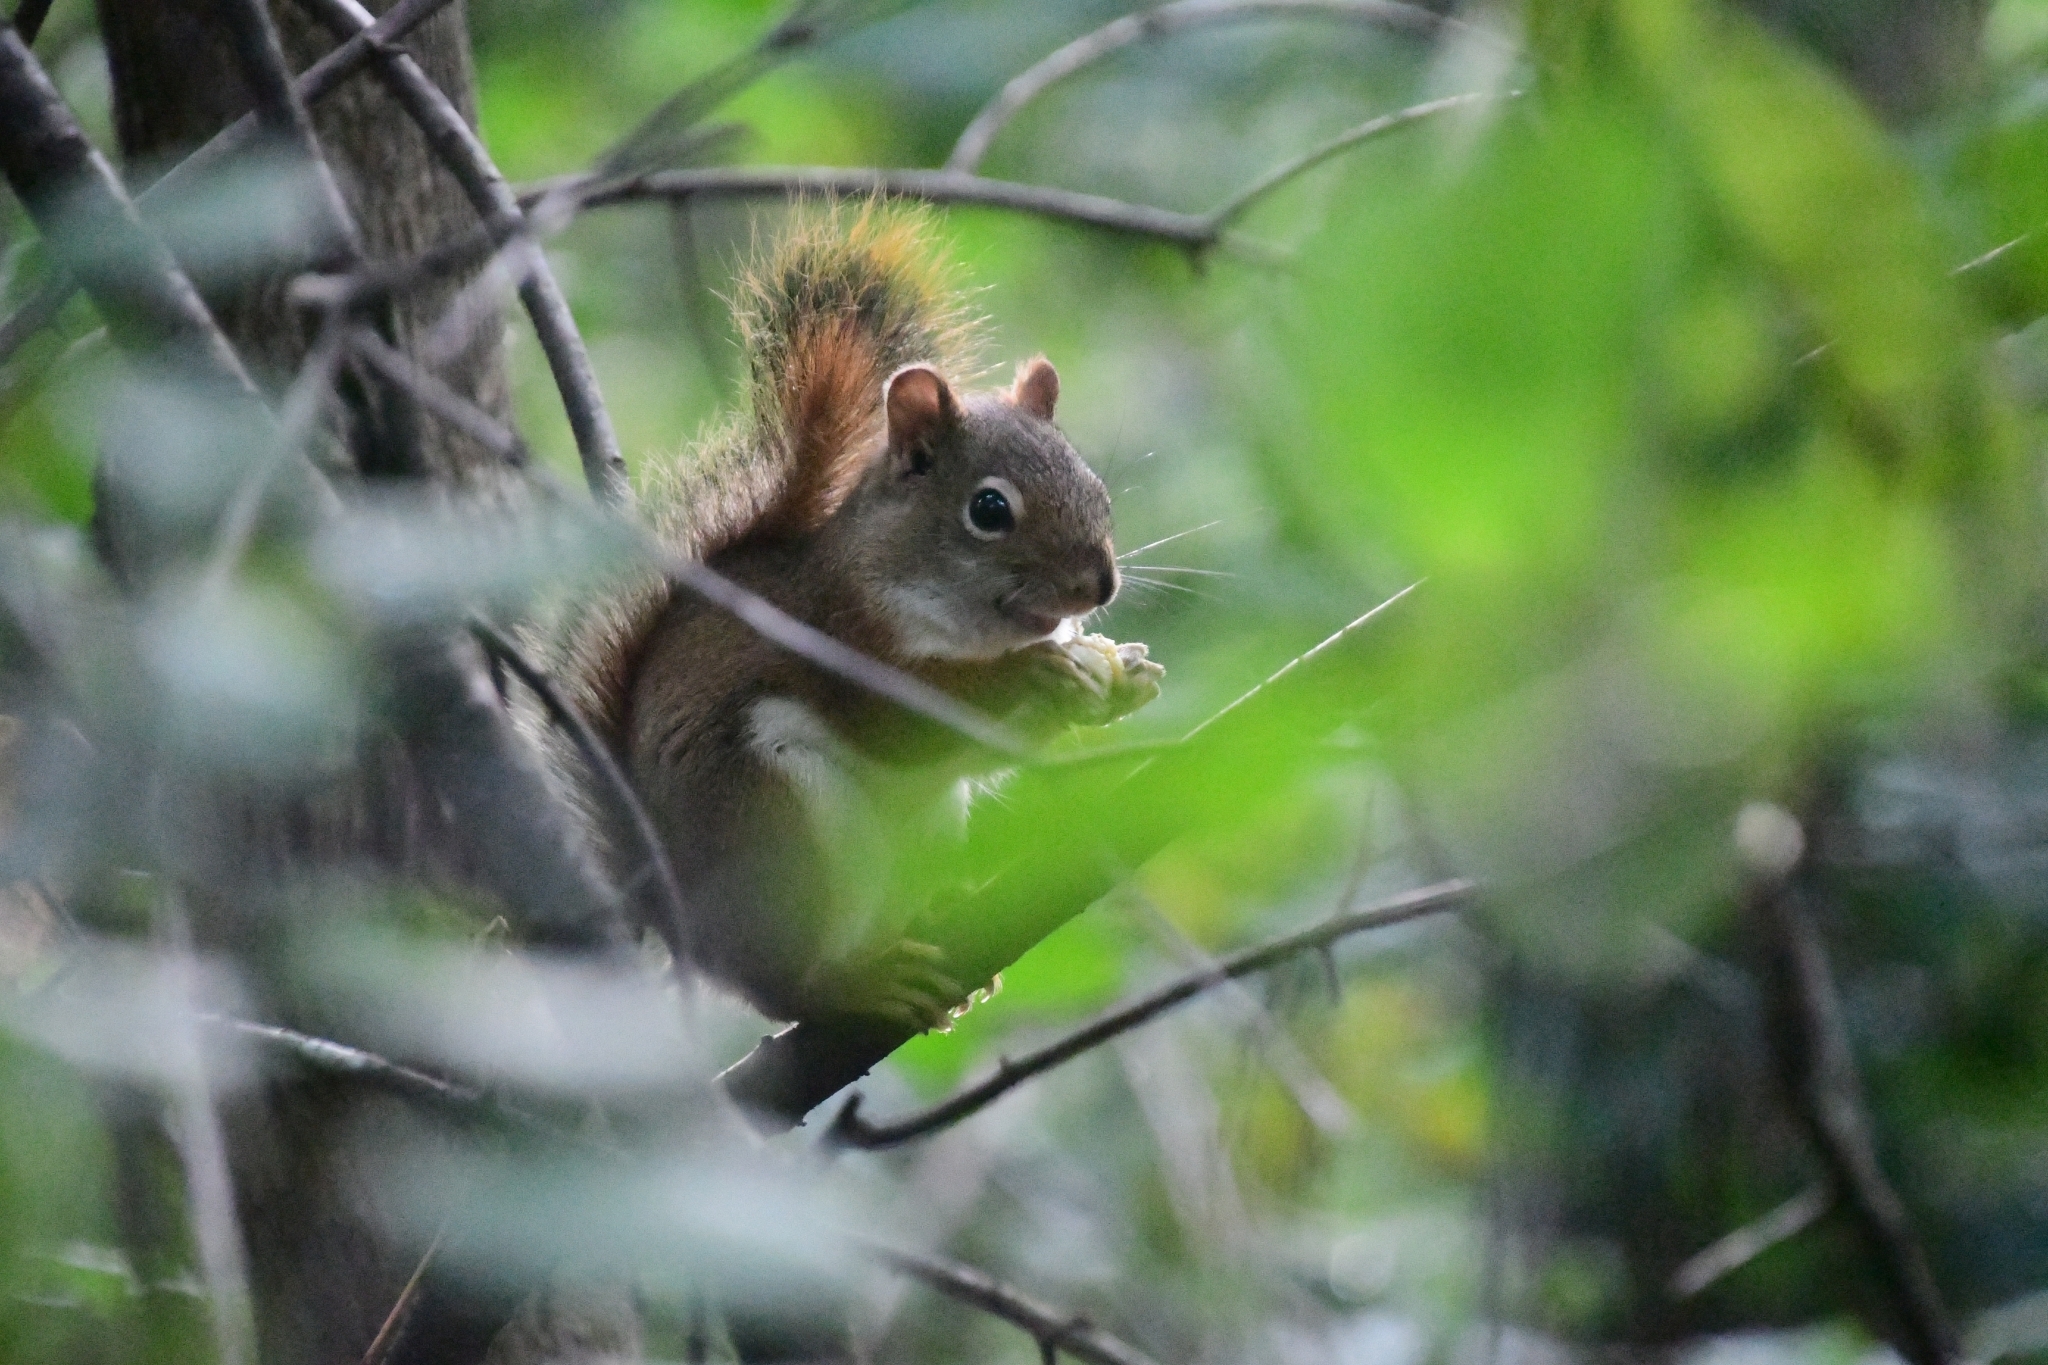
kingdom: Animalia
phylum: Chordata
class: Mammalia
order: Rodentia
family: Sciuridae
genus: Tamiasciurus
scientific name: Tamiasciurus hudsonicus
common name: Red squirrel
